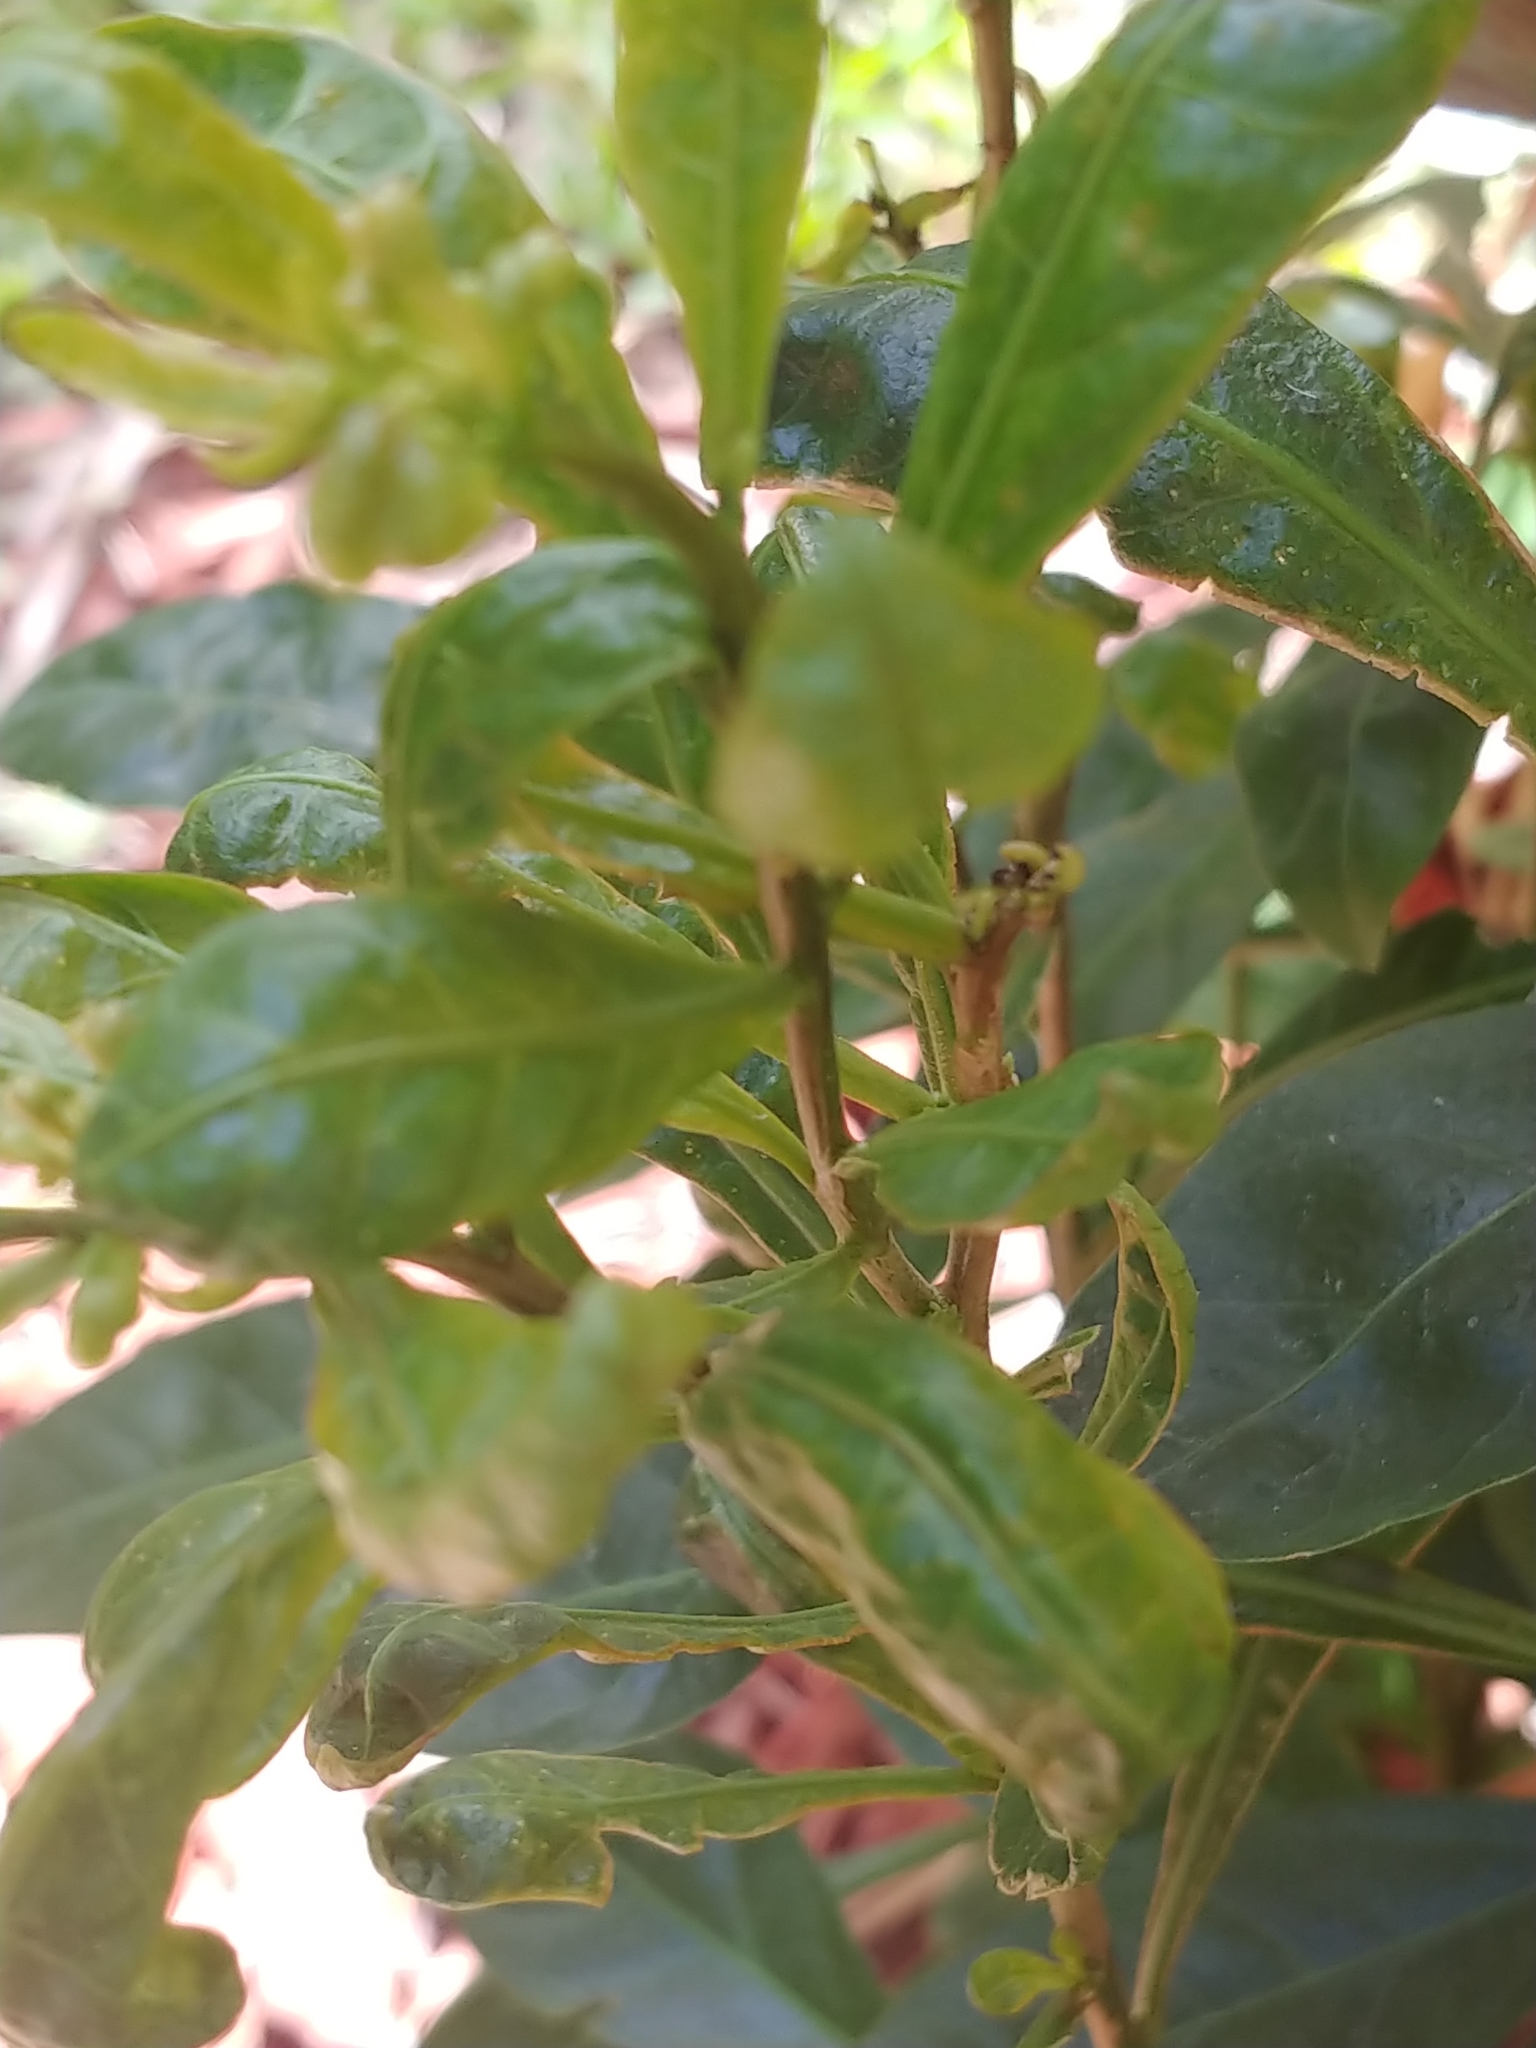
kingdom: Plantae
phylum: Tracheophyta
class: Magnoliopsida
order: Solanales
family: Solanaceae
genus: Solanum
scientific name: Solanum diphyllum
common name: Twoleaf nightshade
